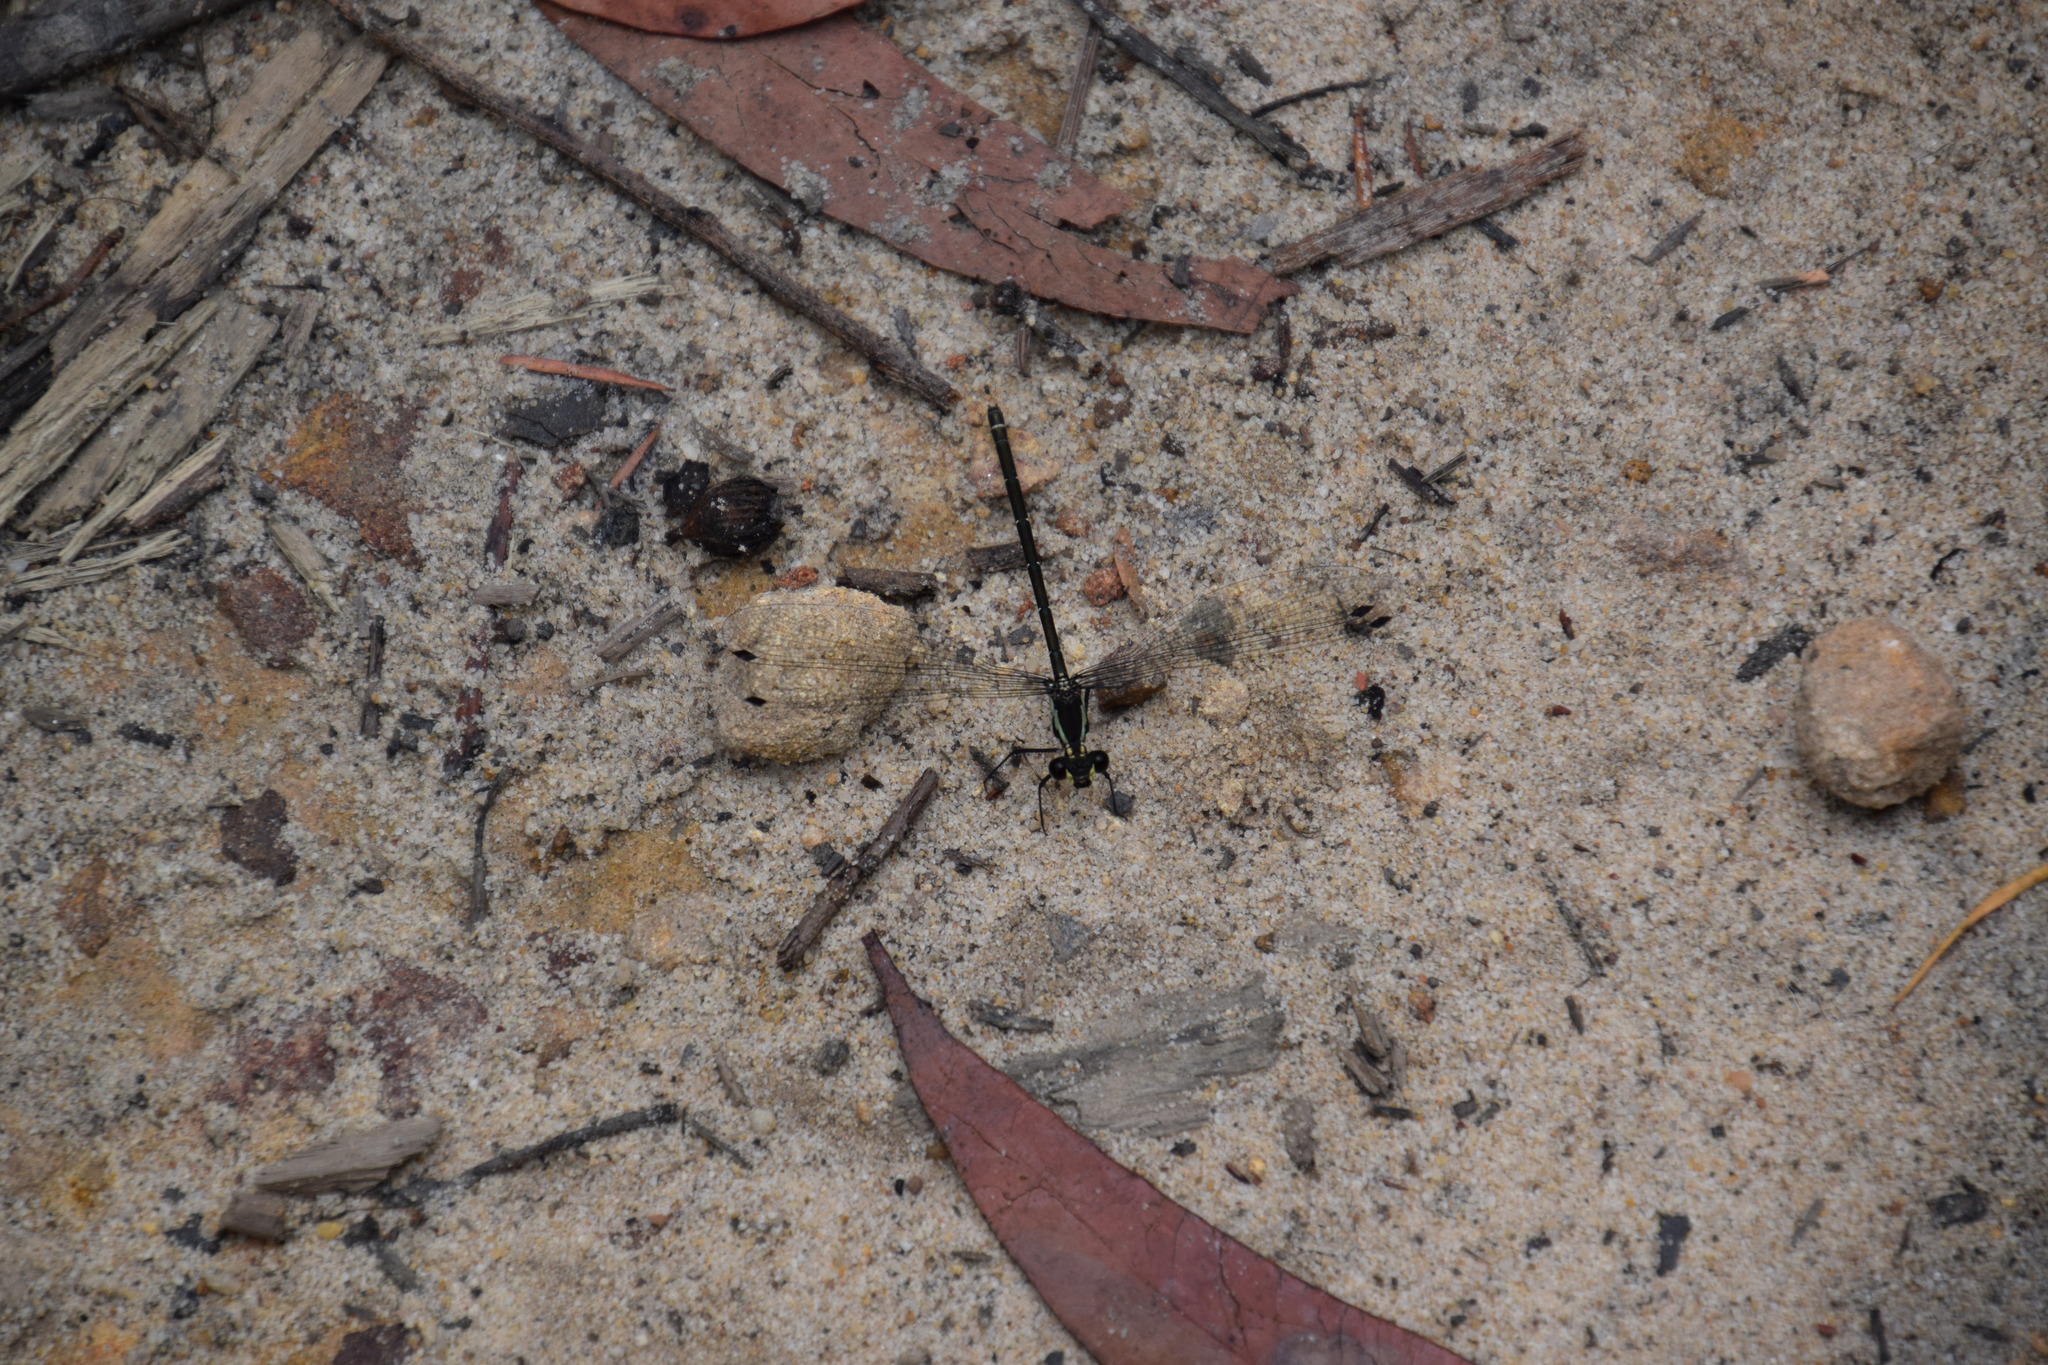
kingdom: Animalia
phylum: Arthropoda
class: Insecta
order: Odonata
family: Argiolestidae
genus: Austroargiolestes
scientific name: Austroargiolestes icteromelas
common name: Common flatwing
